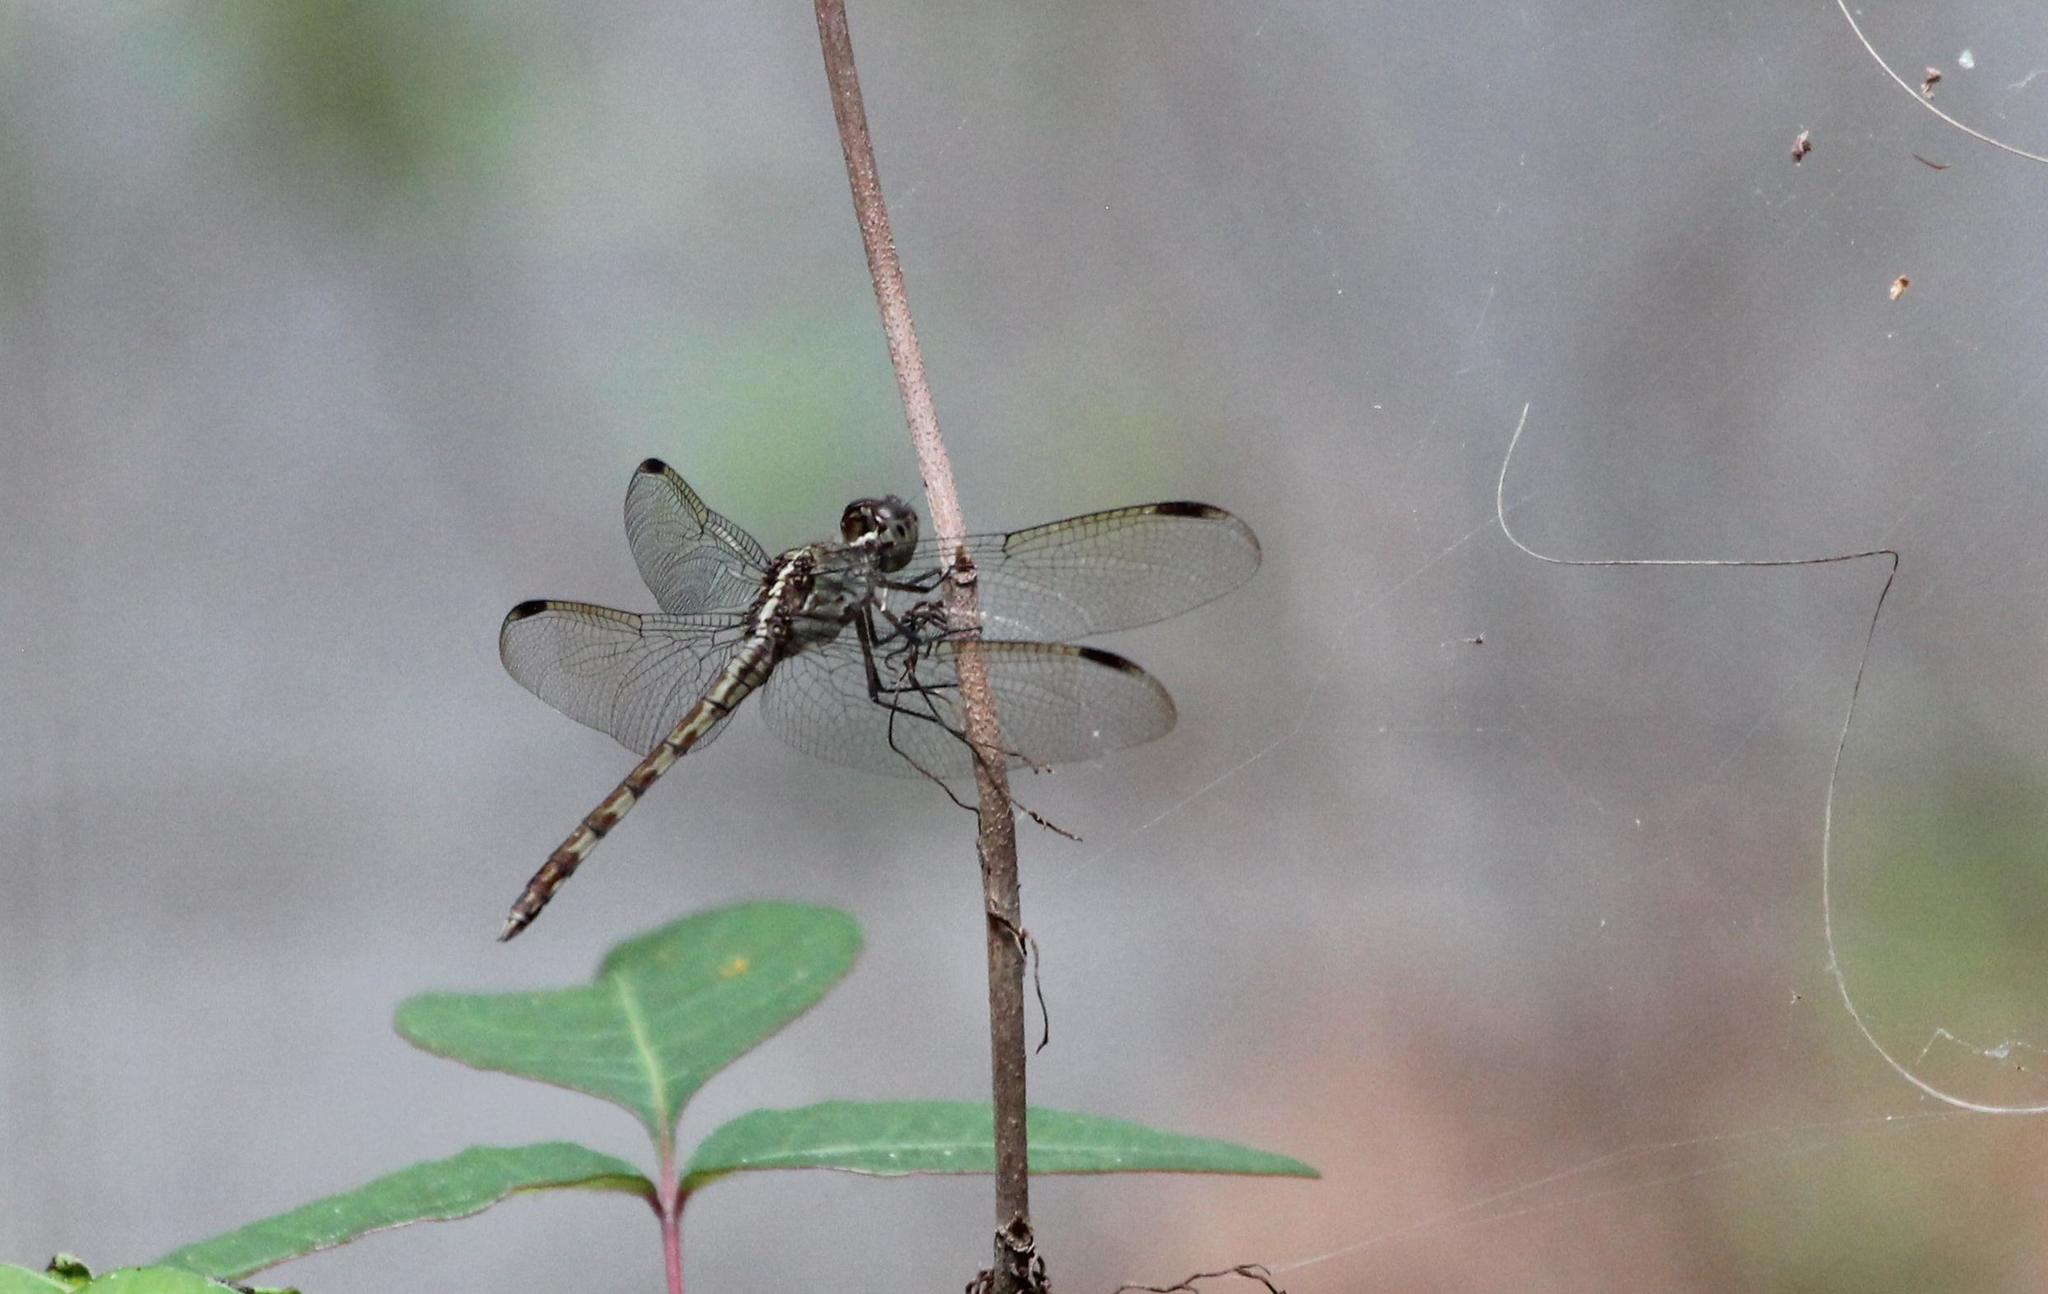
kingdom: Animalia
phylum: Arthropoda
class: Insecta
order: Odonata
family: Libellulidae
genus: Erythrodiplax
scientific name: Erythrodiplax umbrata
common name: Band-winged dragonlet
